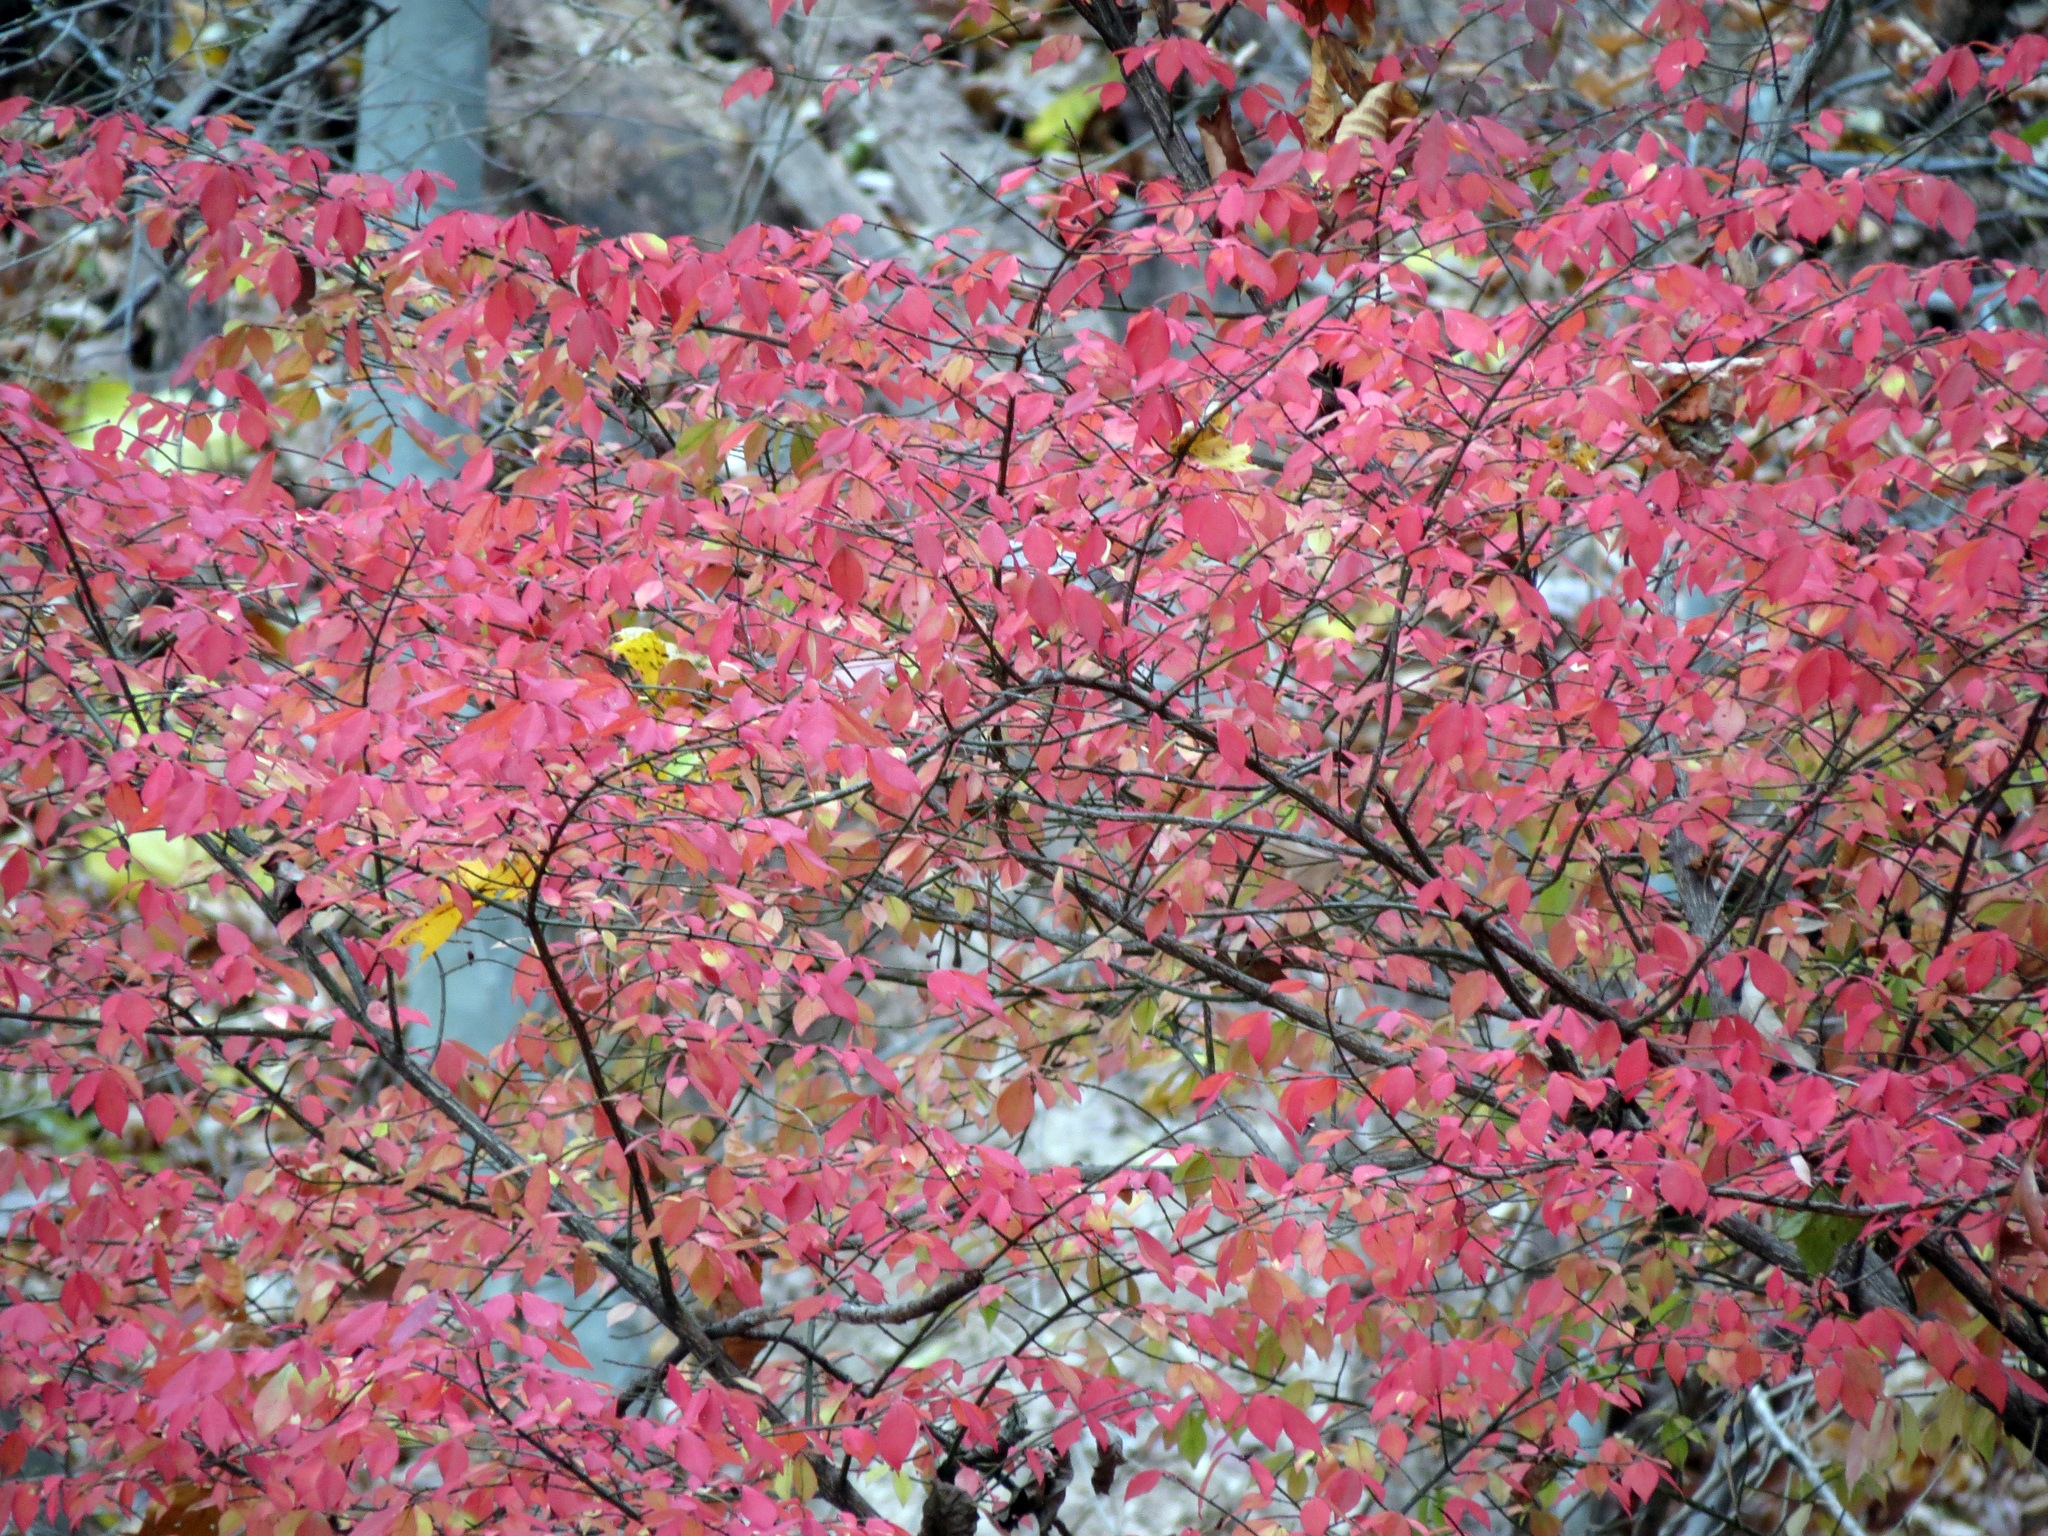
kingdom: Plantae
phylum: Tracheophyta
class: Magnoliopsida
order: Celastrales
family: Celastraceae
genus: Euonymus
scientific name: Euonymus alatus
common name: Winged euonymus
